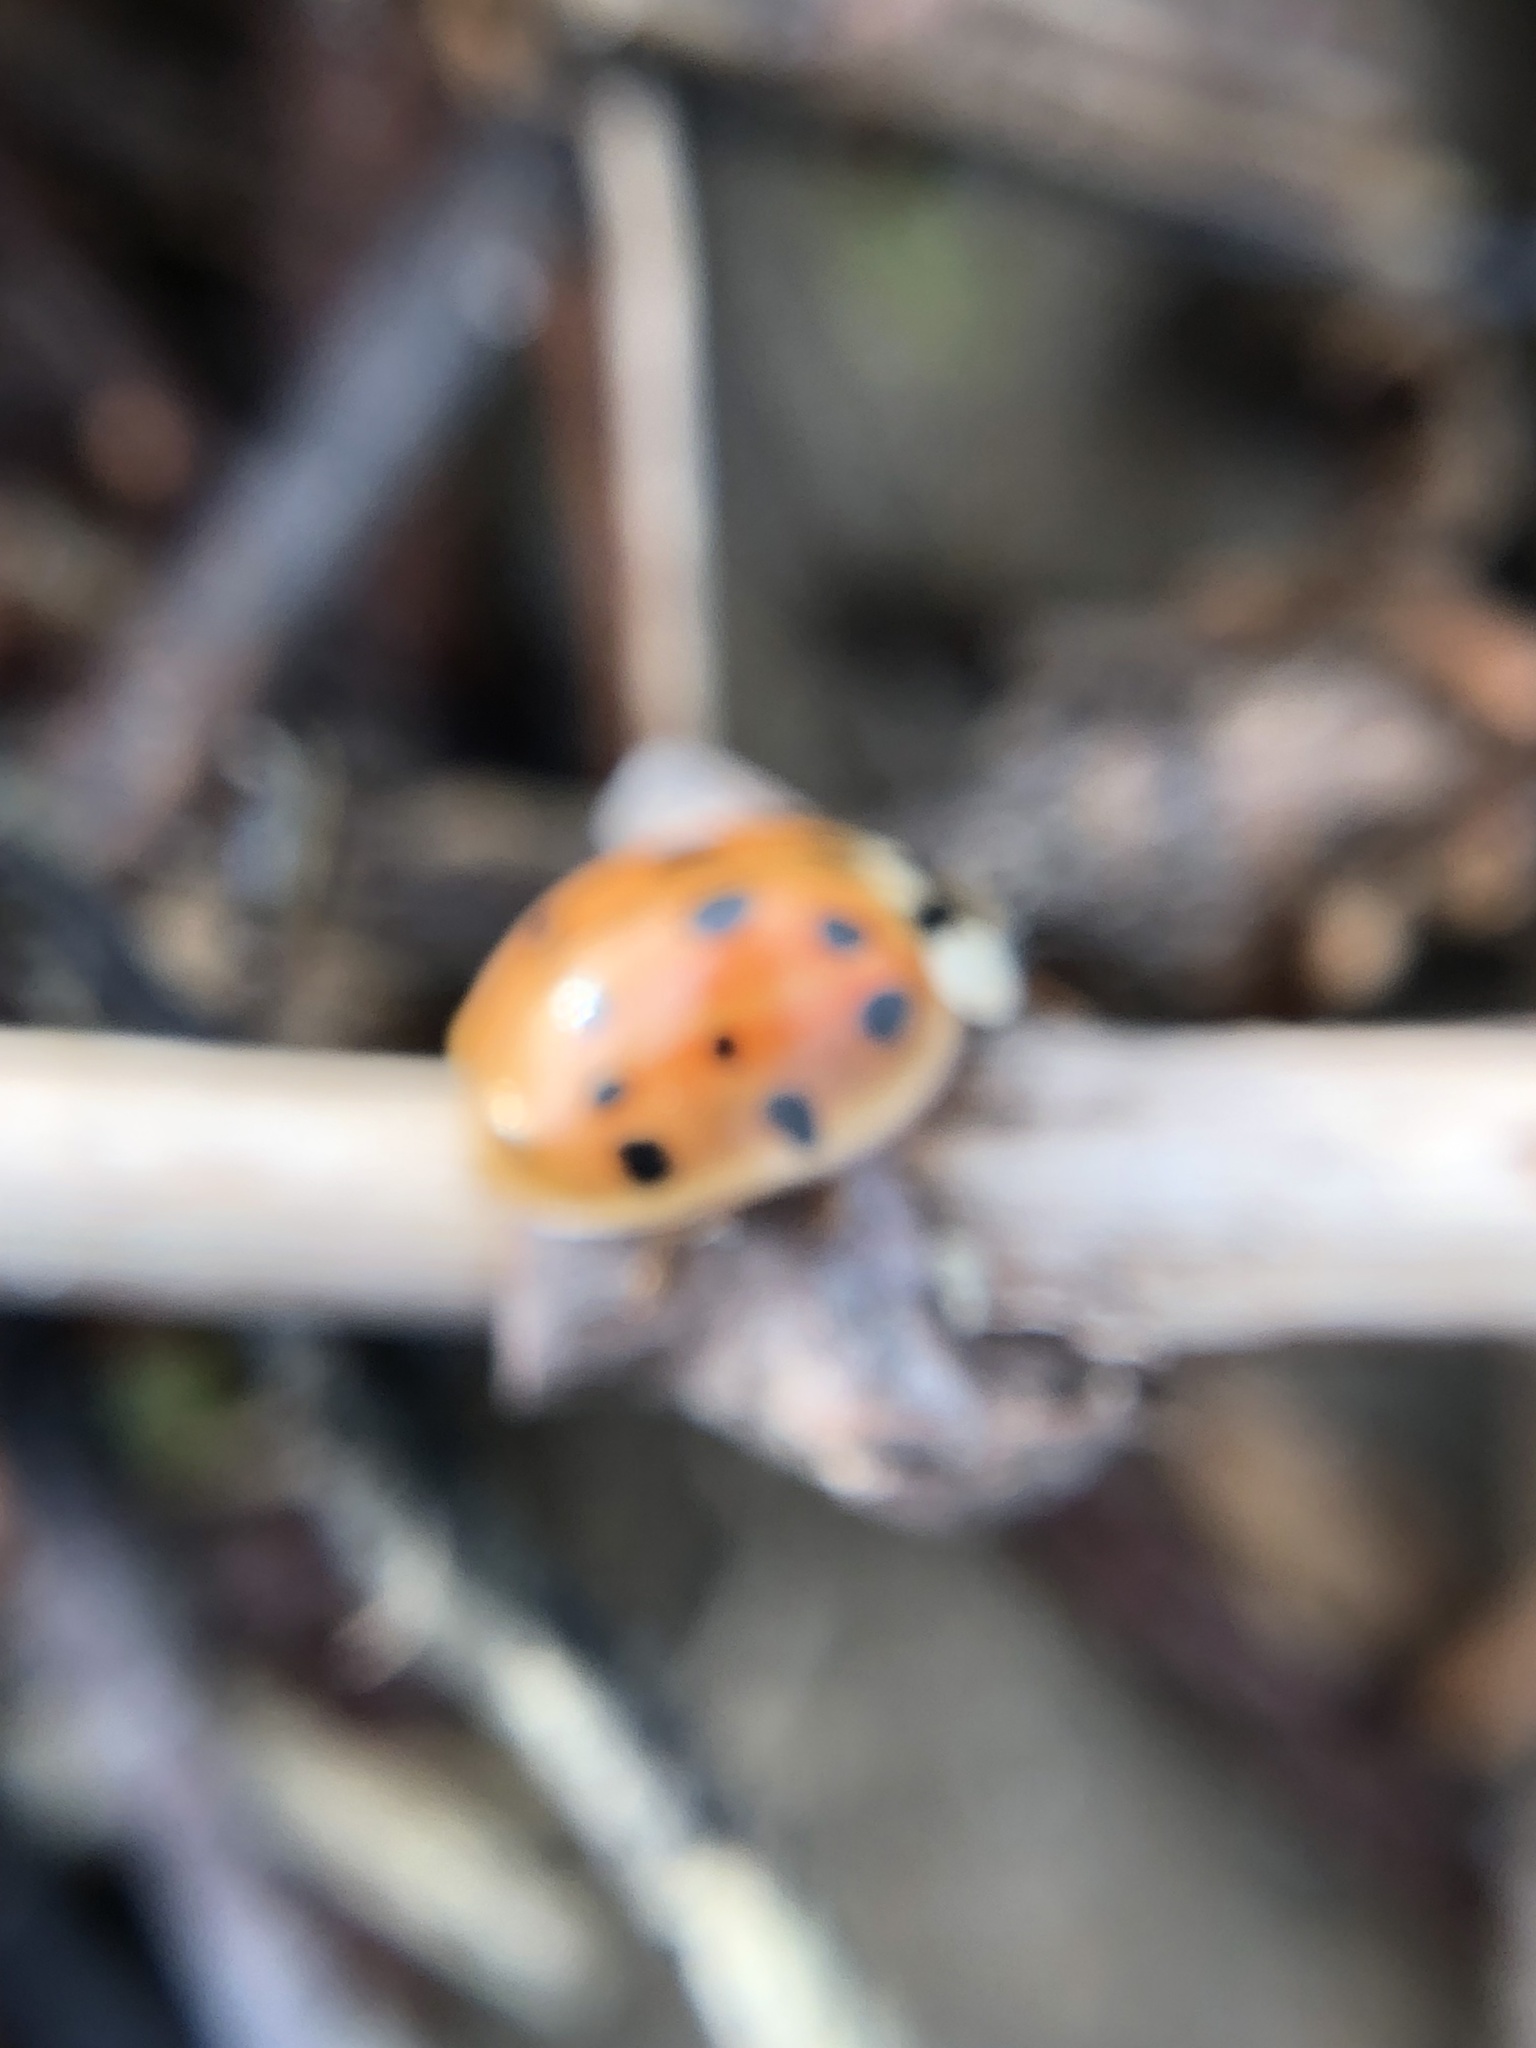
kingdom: Animalia
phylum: Arthropoda
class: Insecta
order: Coleoptera
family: Coccinellidae
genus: Harmonia
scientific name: Harmonia axyridis
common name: Harlequin ladybird
